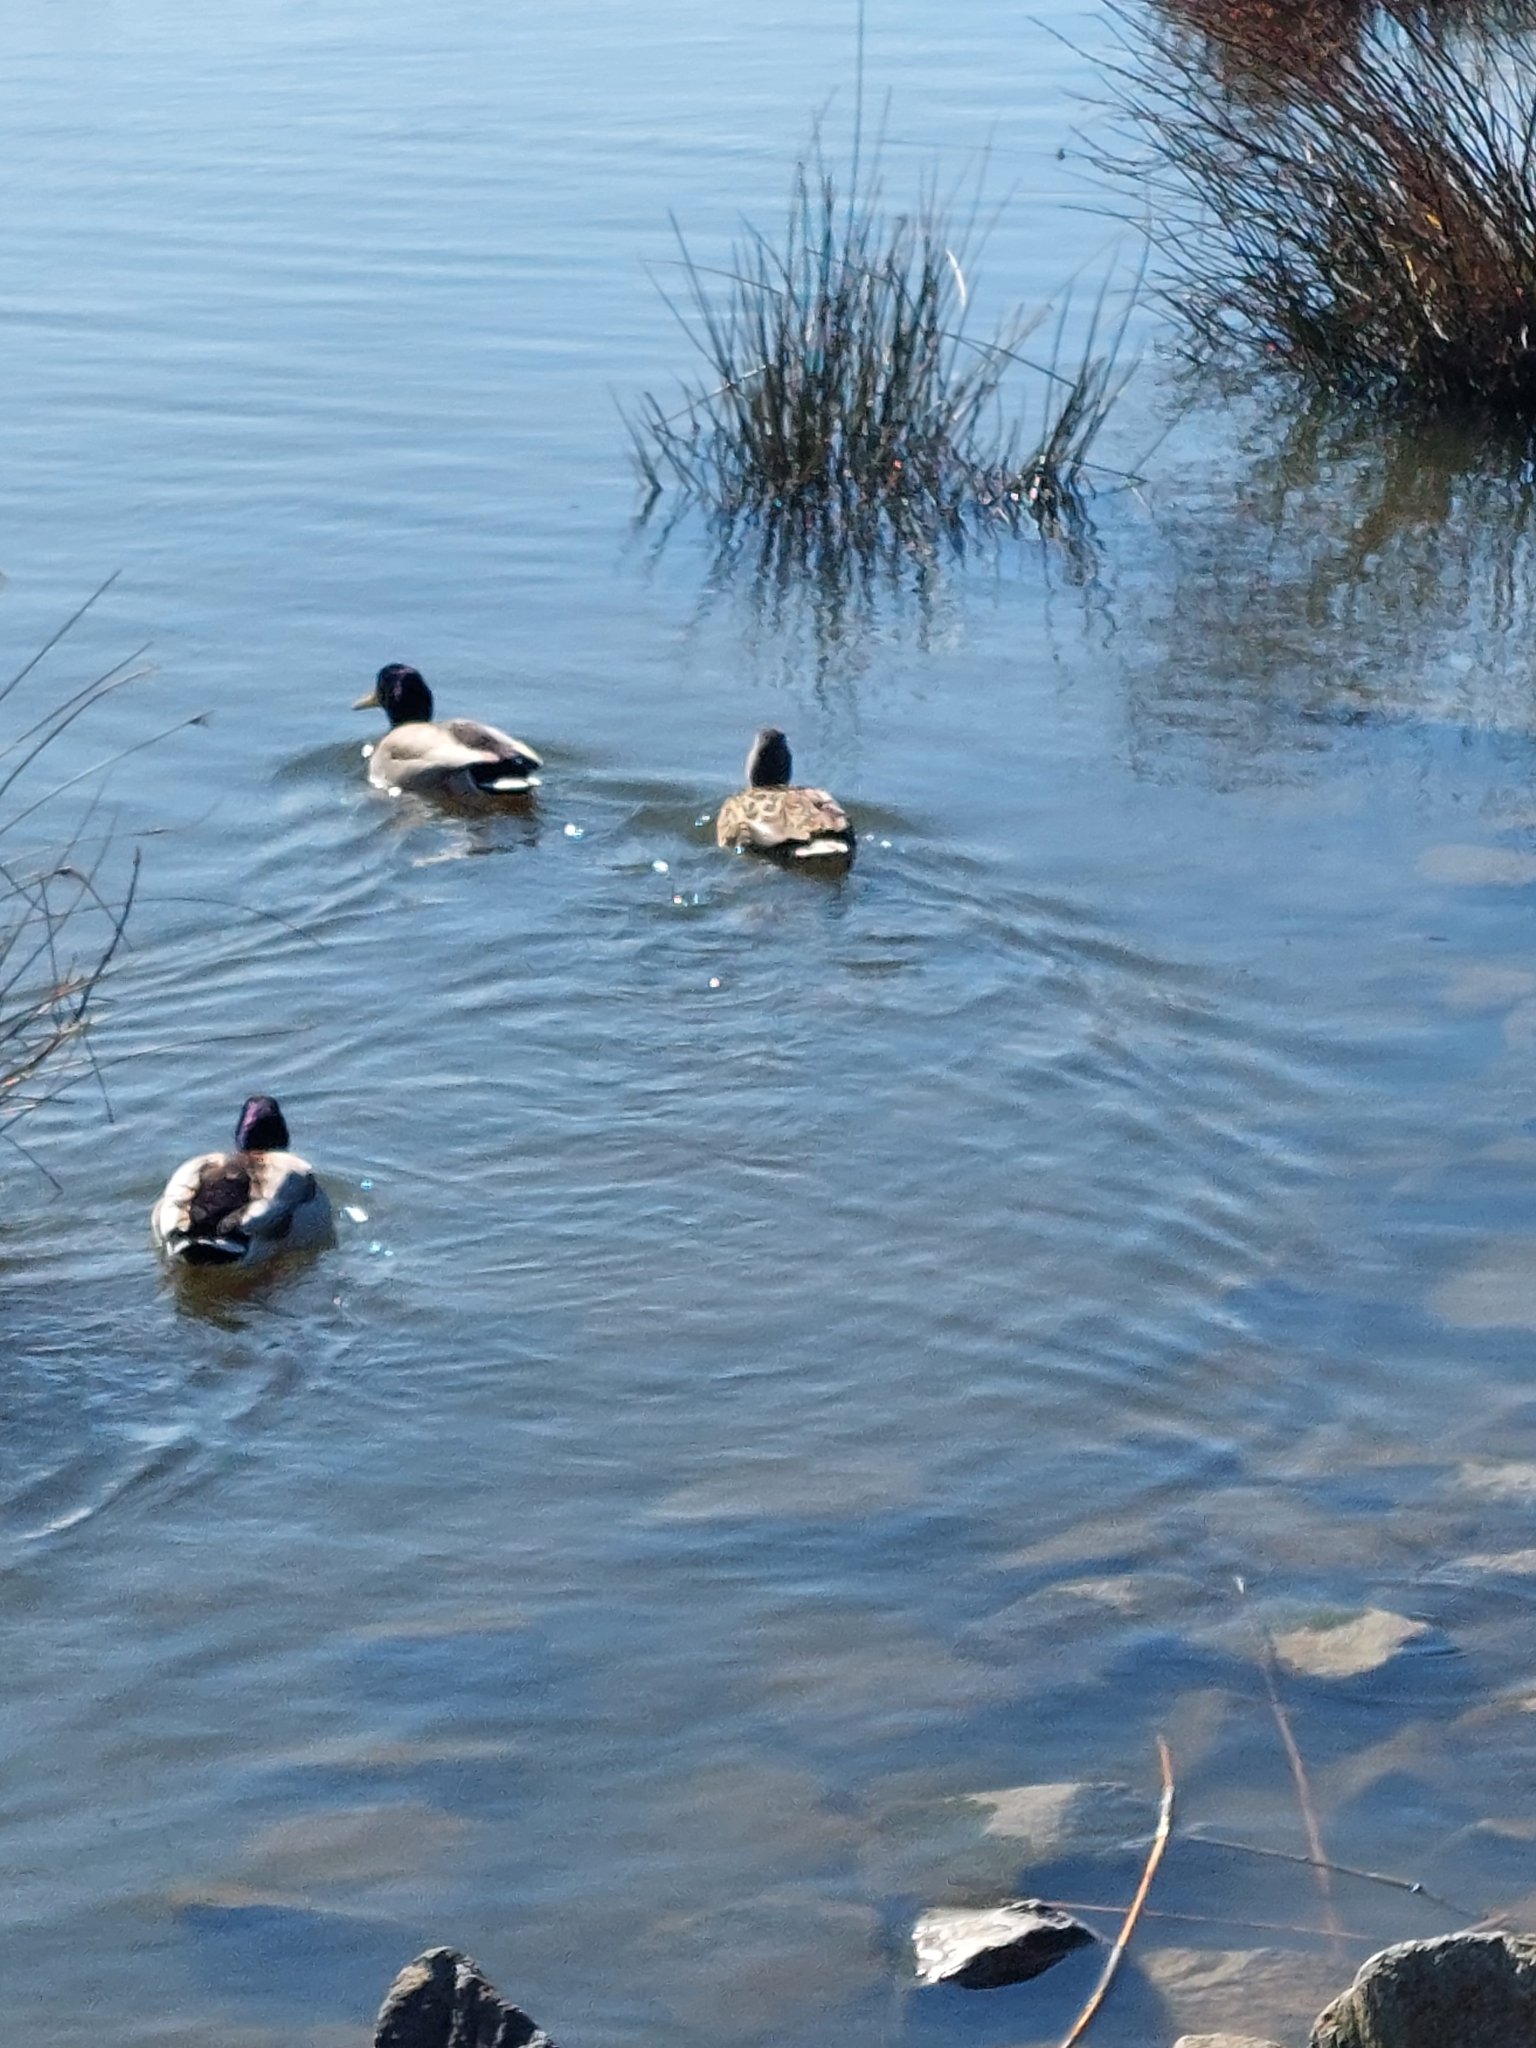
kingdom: Animalia
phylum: Chordata
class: Aves
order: Anseriformes
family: Anatidae
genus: Anas
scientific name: Anas platyrhynchos
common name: Mallard
